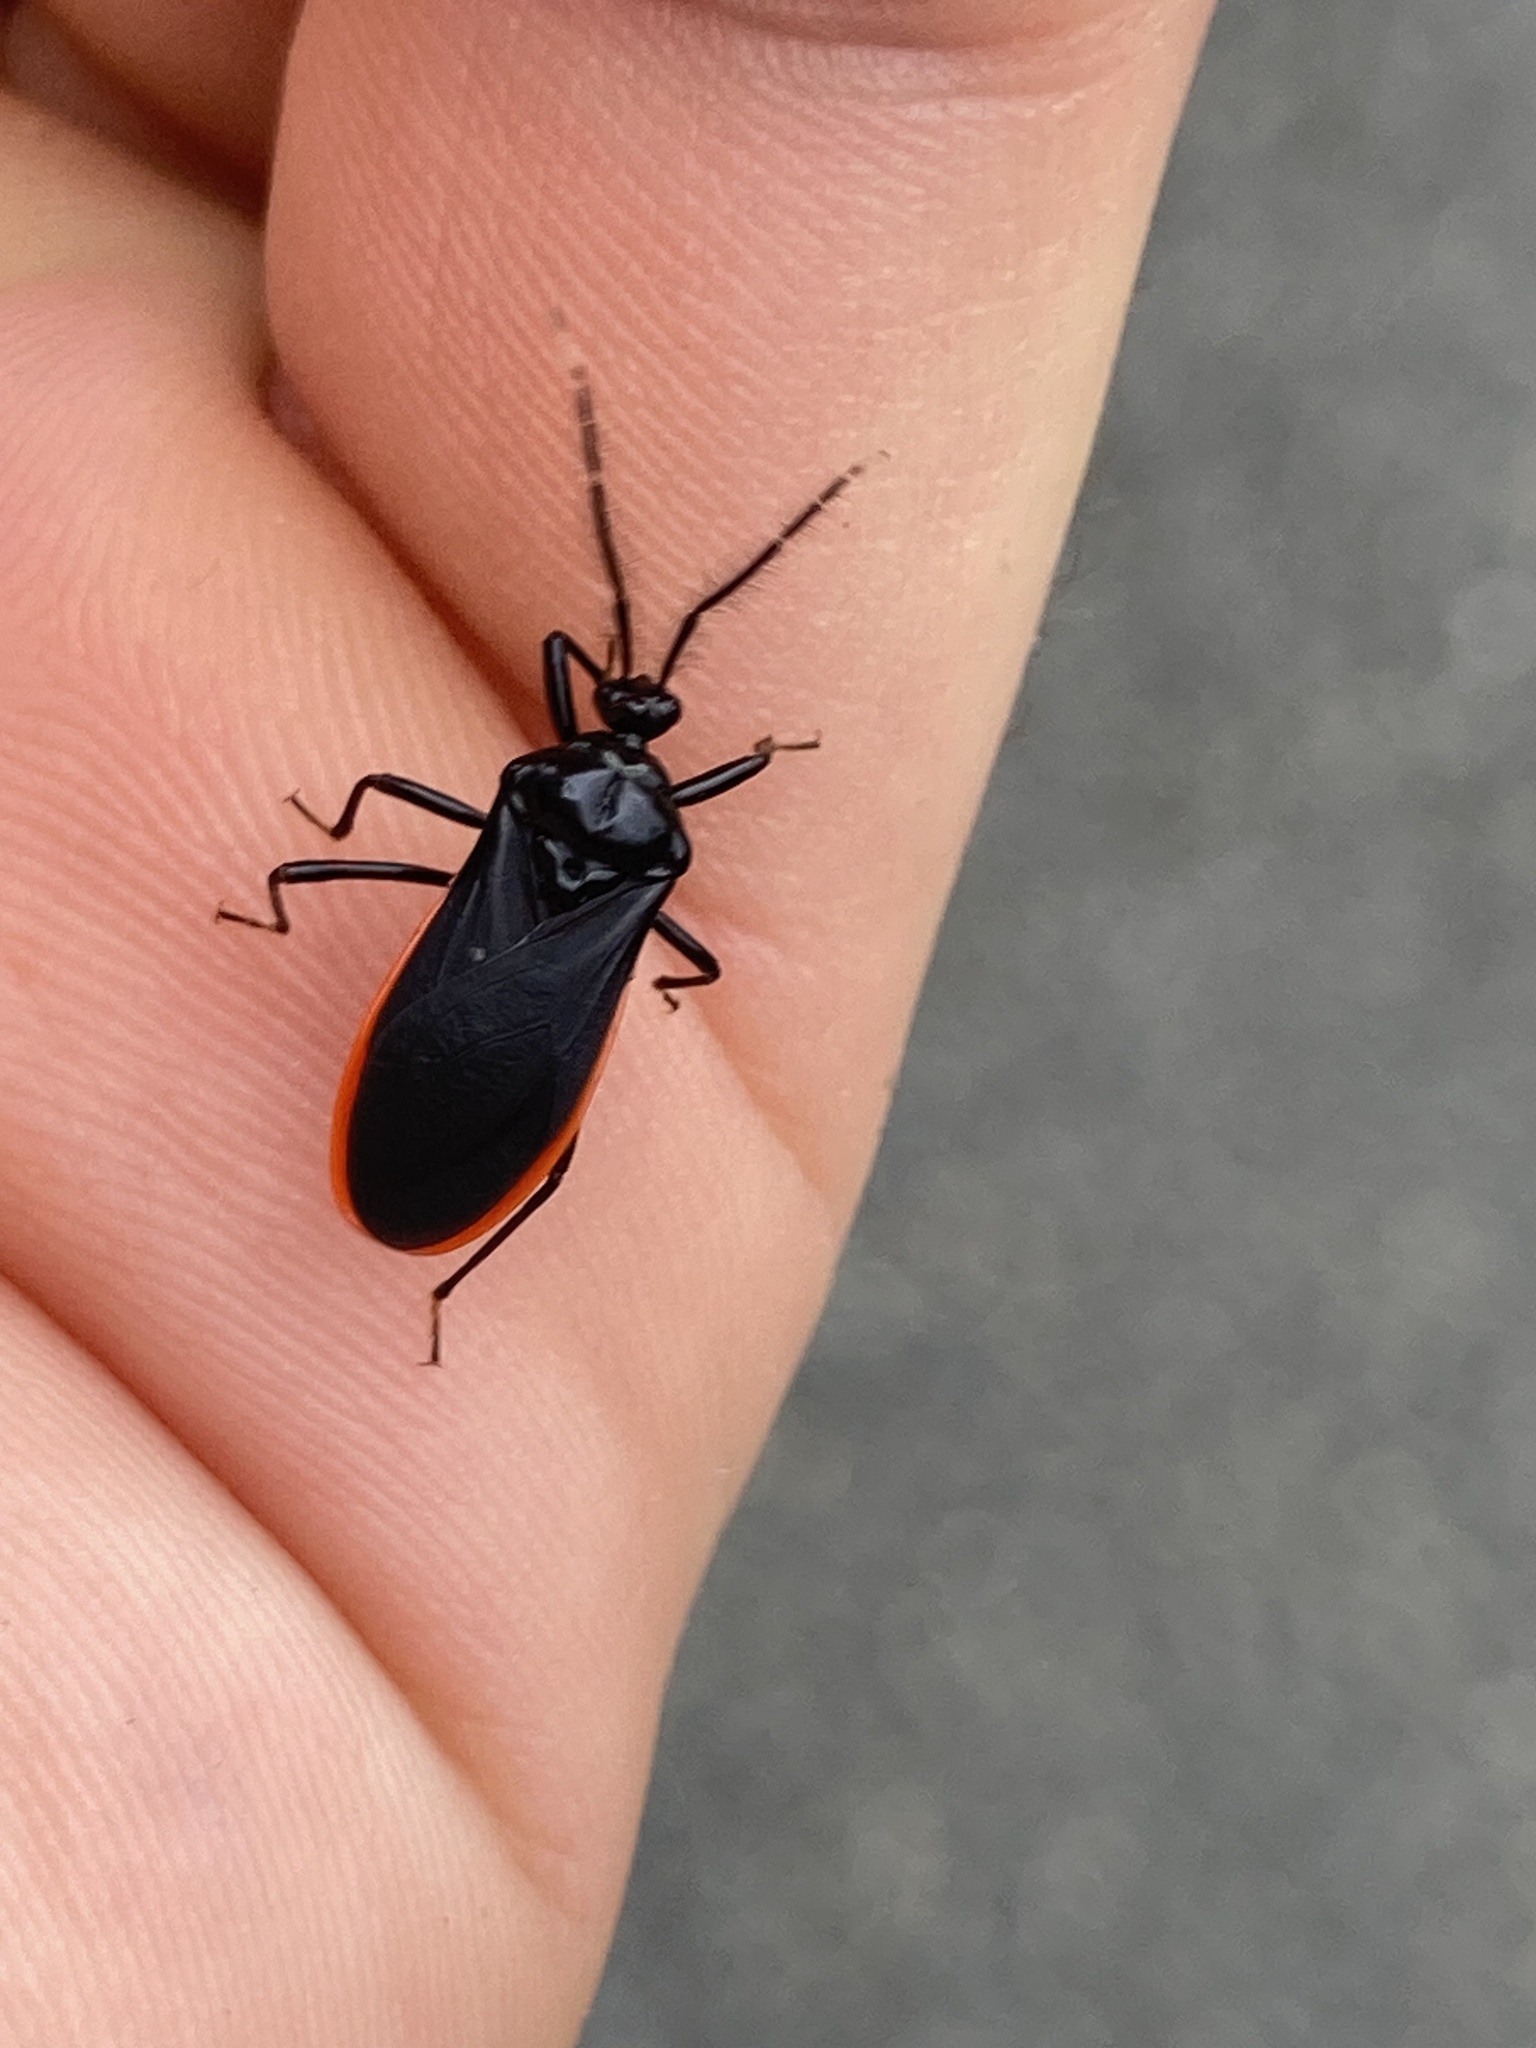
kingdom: Animalia
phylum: Arthropoda
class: Insecta
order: Hemiptera
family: Reduviidae
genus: Lyramna
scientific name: Lyramna vigil
